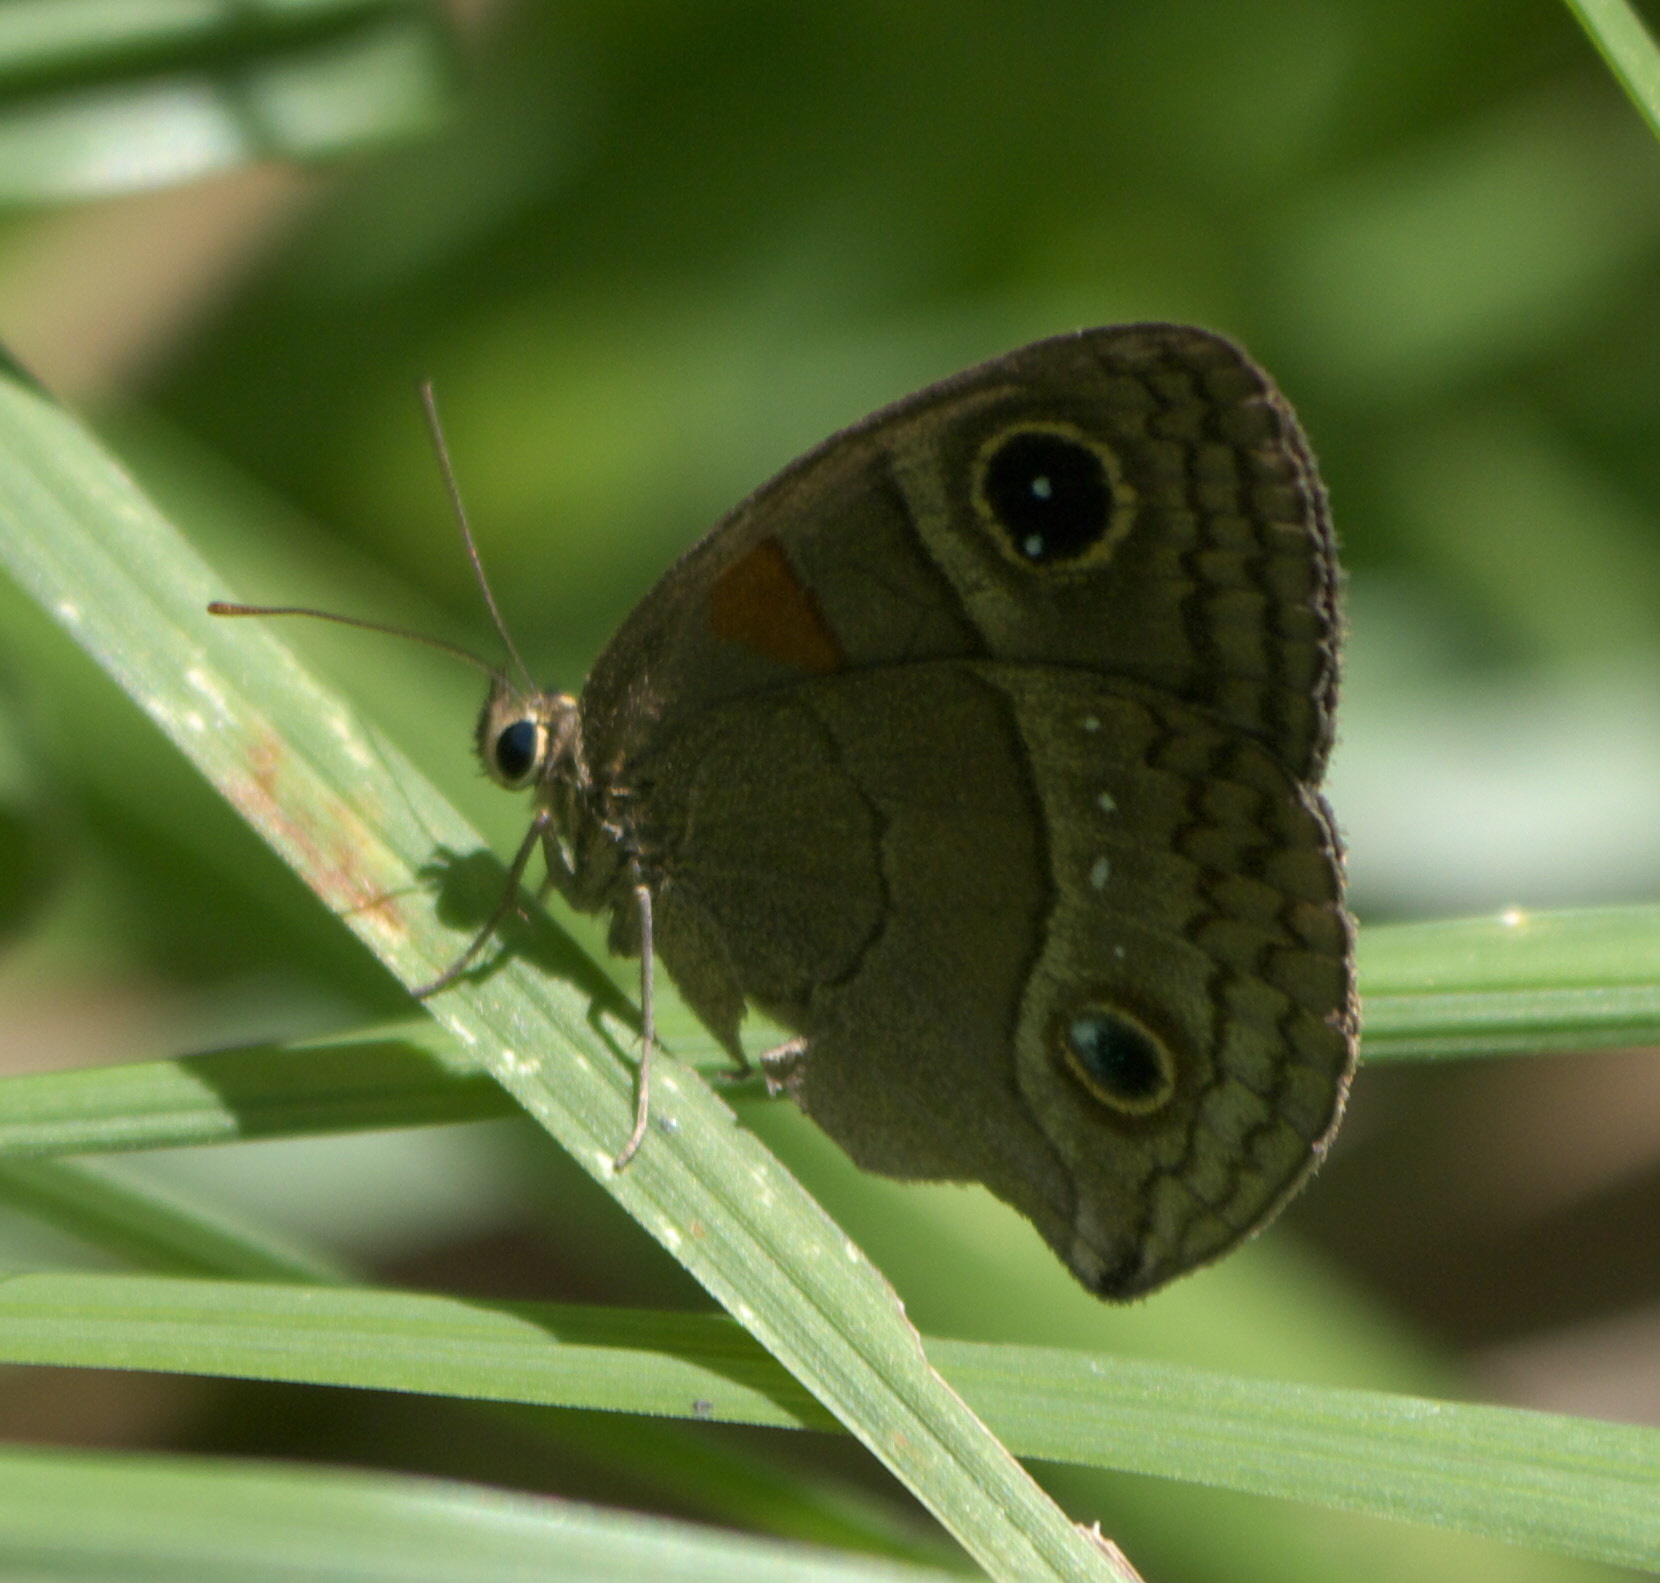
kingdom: Animalia
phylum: Arthropoda
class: Insecta
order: Lepidoptera
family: Nymphalidae
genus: Calisto
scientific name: Calisto herophile
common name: Cuban calisto
